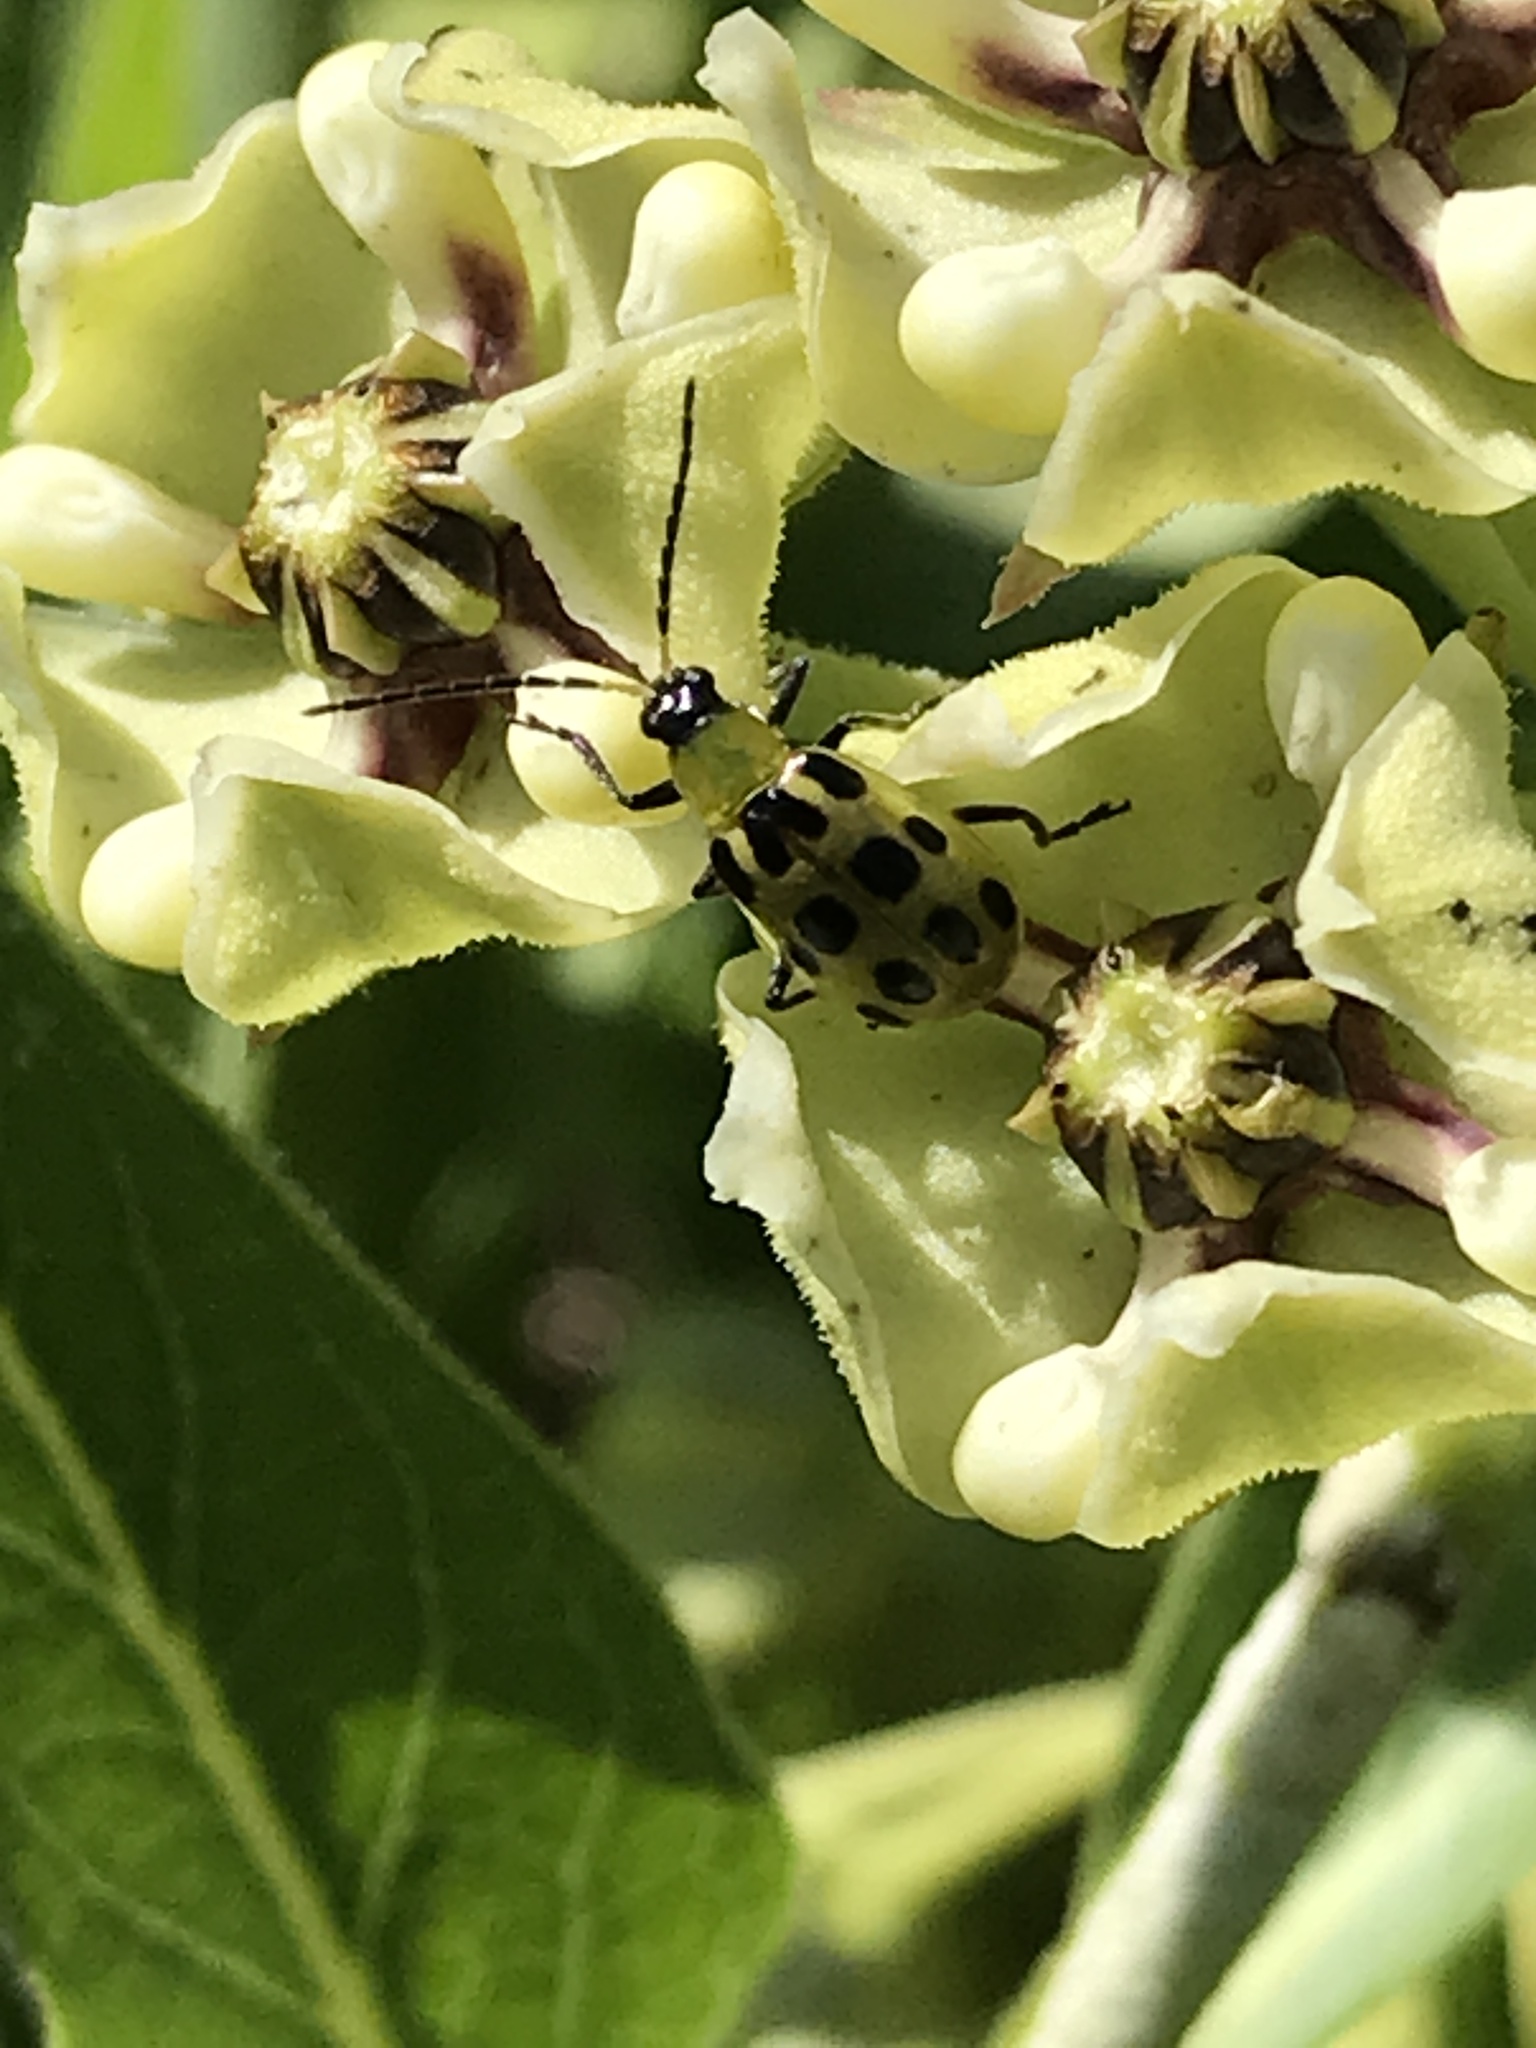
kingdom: Animalia
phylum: Arthropoda
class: Insecta
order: Coleoptera
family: Chrysomelidae
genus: Diabrotica
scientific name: Diabrotica undecimpunctata
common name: Spotted cucumber beetle
